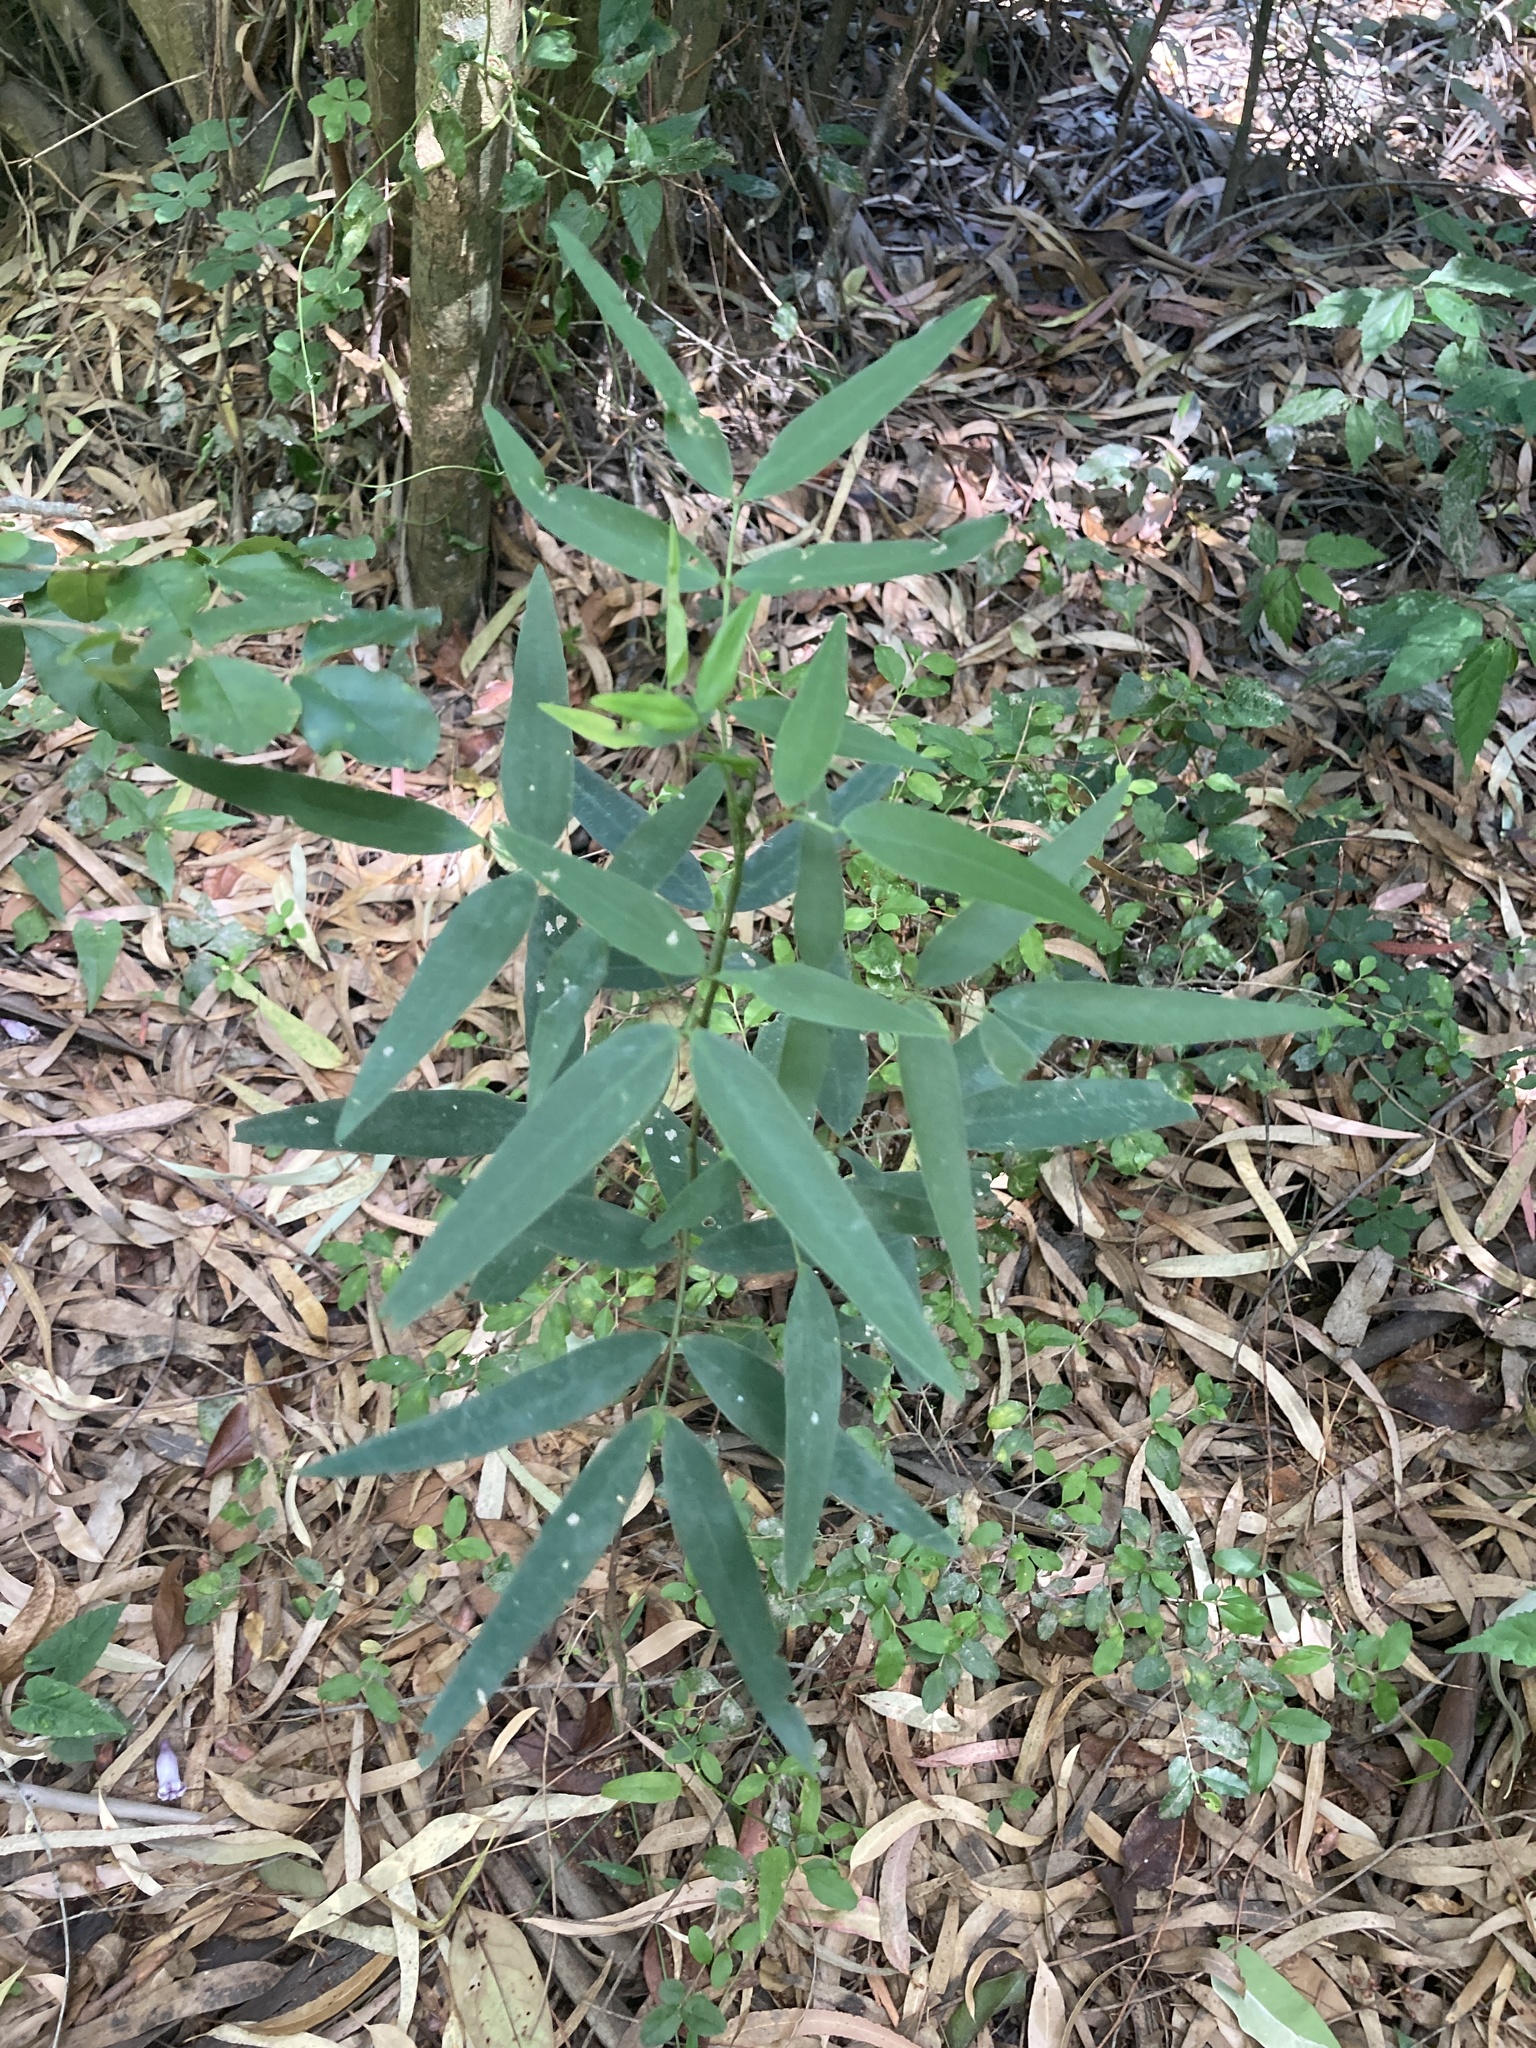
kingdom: Plantae
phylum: Tracheophyta
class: Magnoliopsida
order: Fabales
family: Fabaceae
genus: Senna
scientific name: Senna corymbosa
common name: Argentine senna
